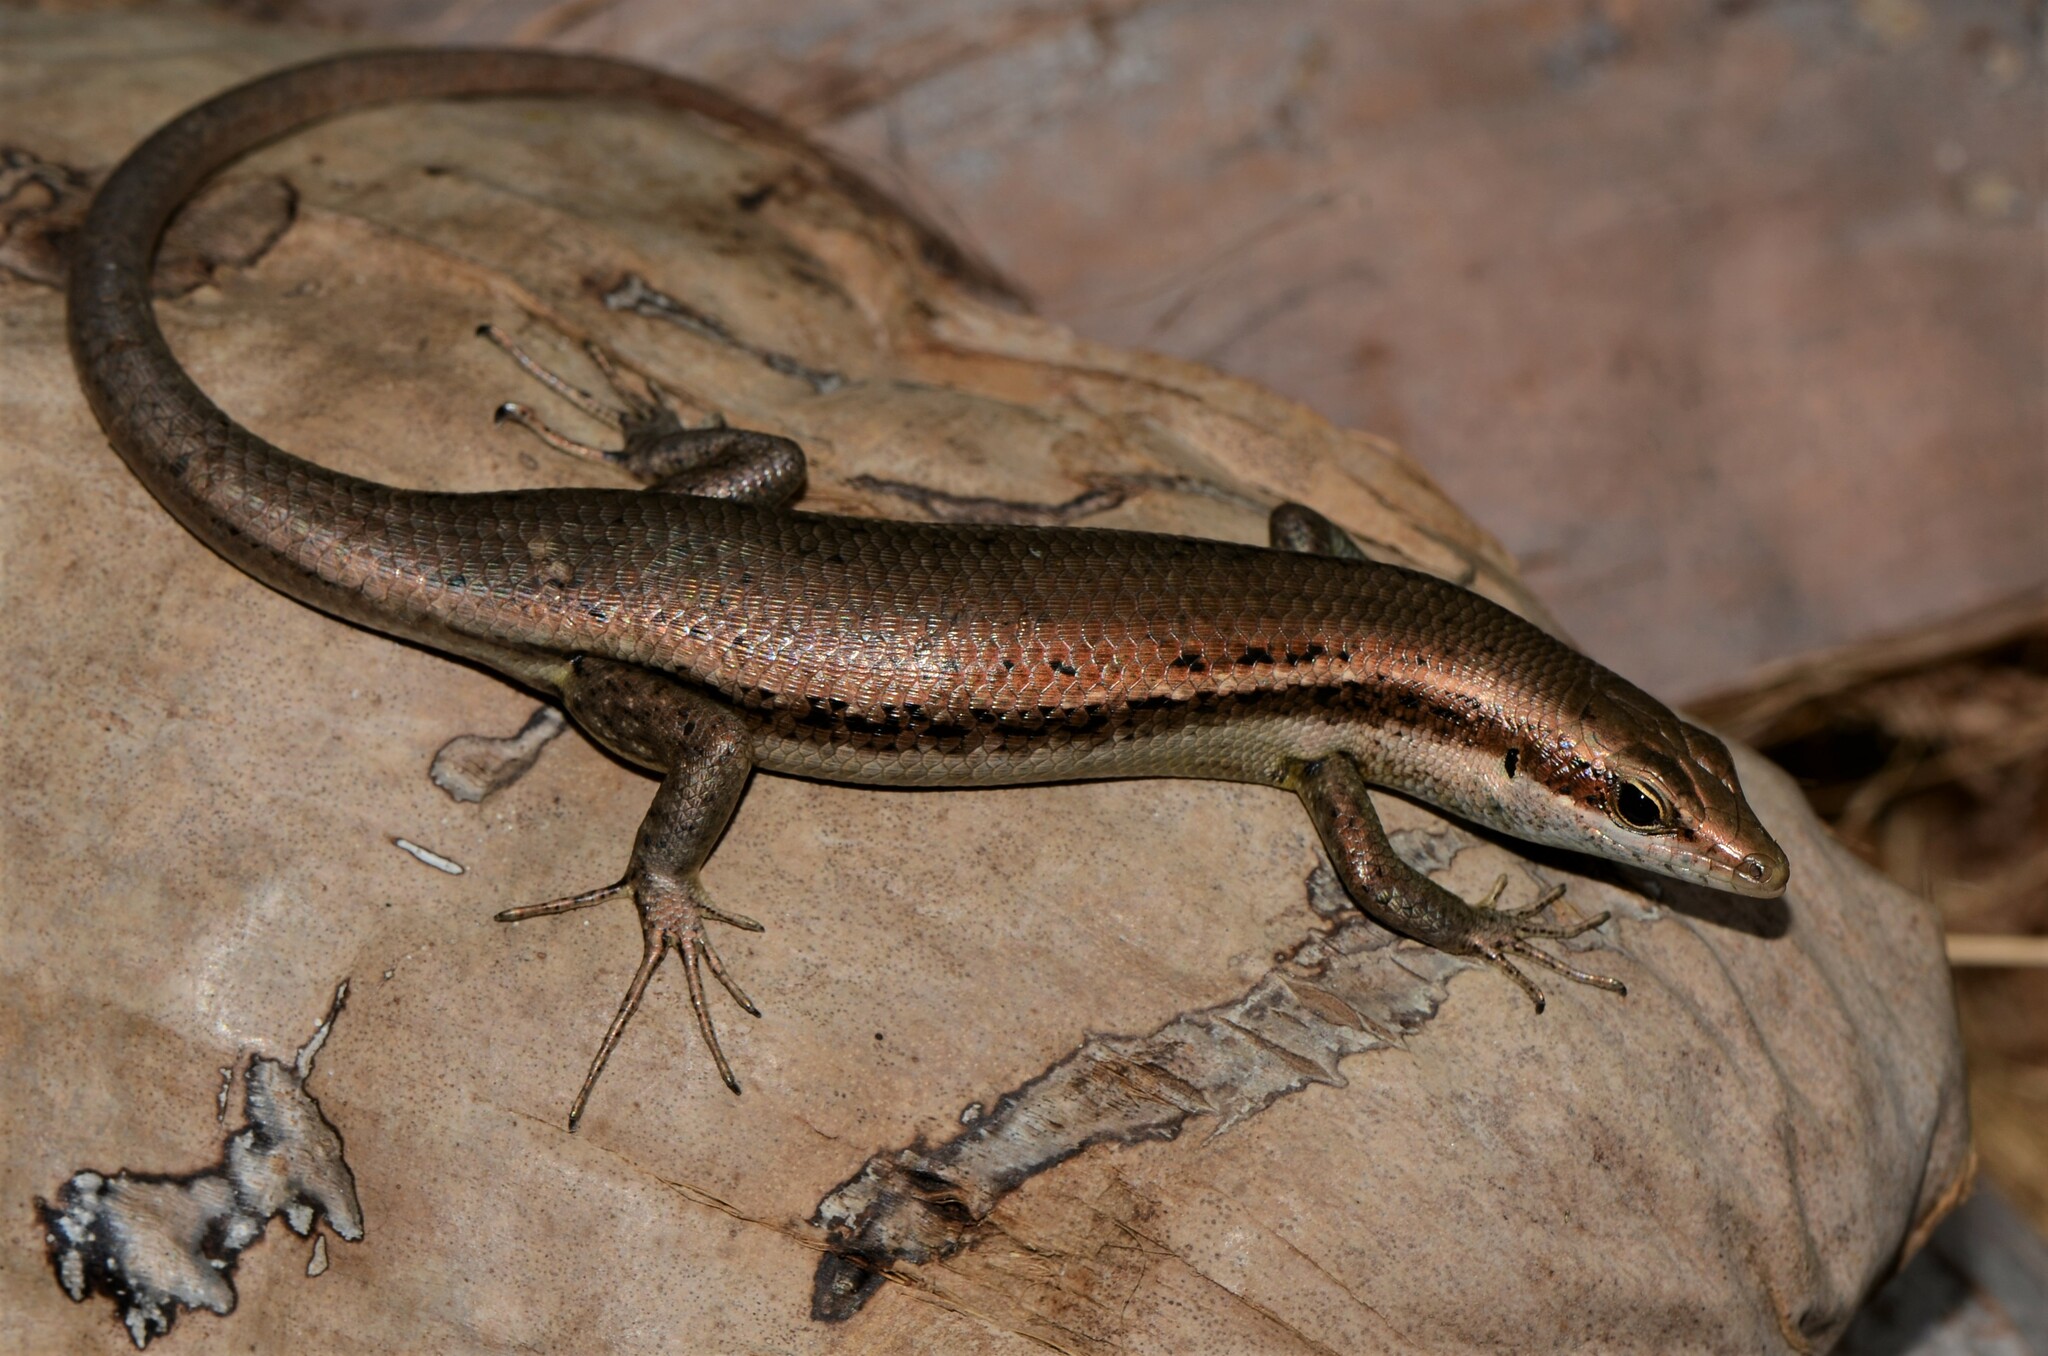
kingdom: Animalia
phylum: Chordata
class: Squamata
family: Scincidae
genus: Trachylepis
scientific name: Trachylepis sechellensis
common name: Seychelles skink
